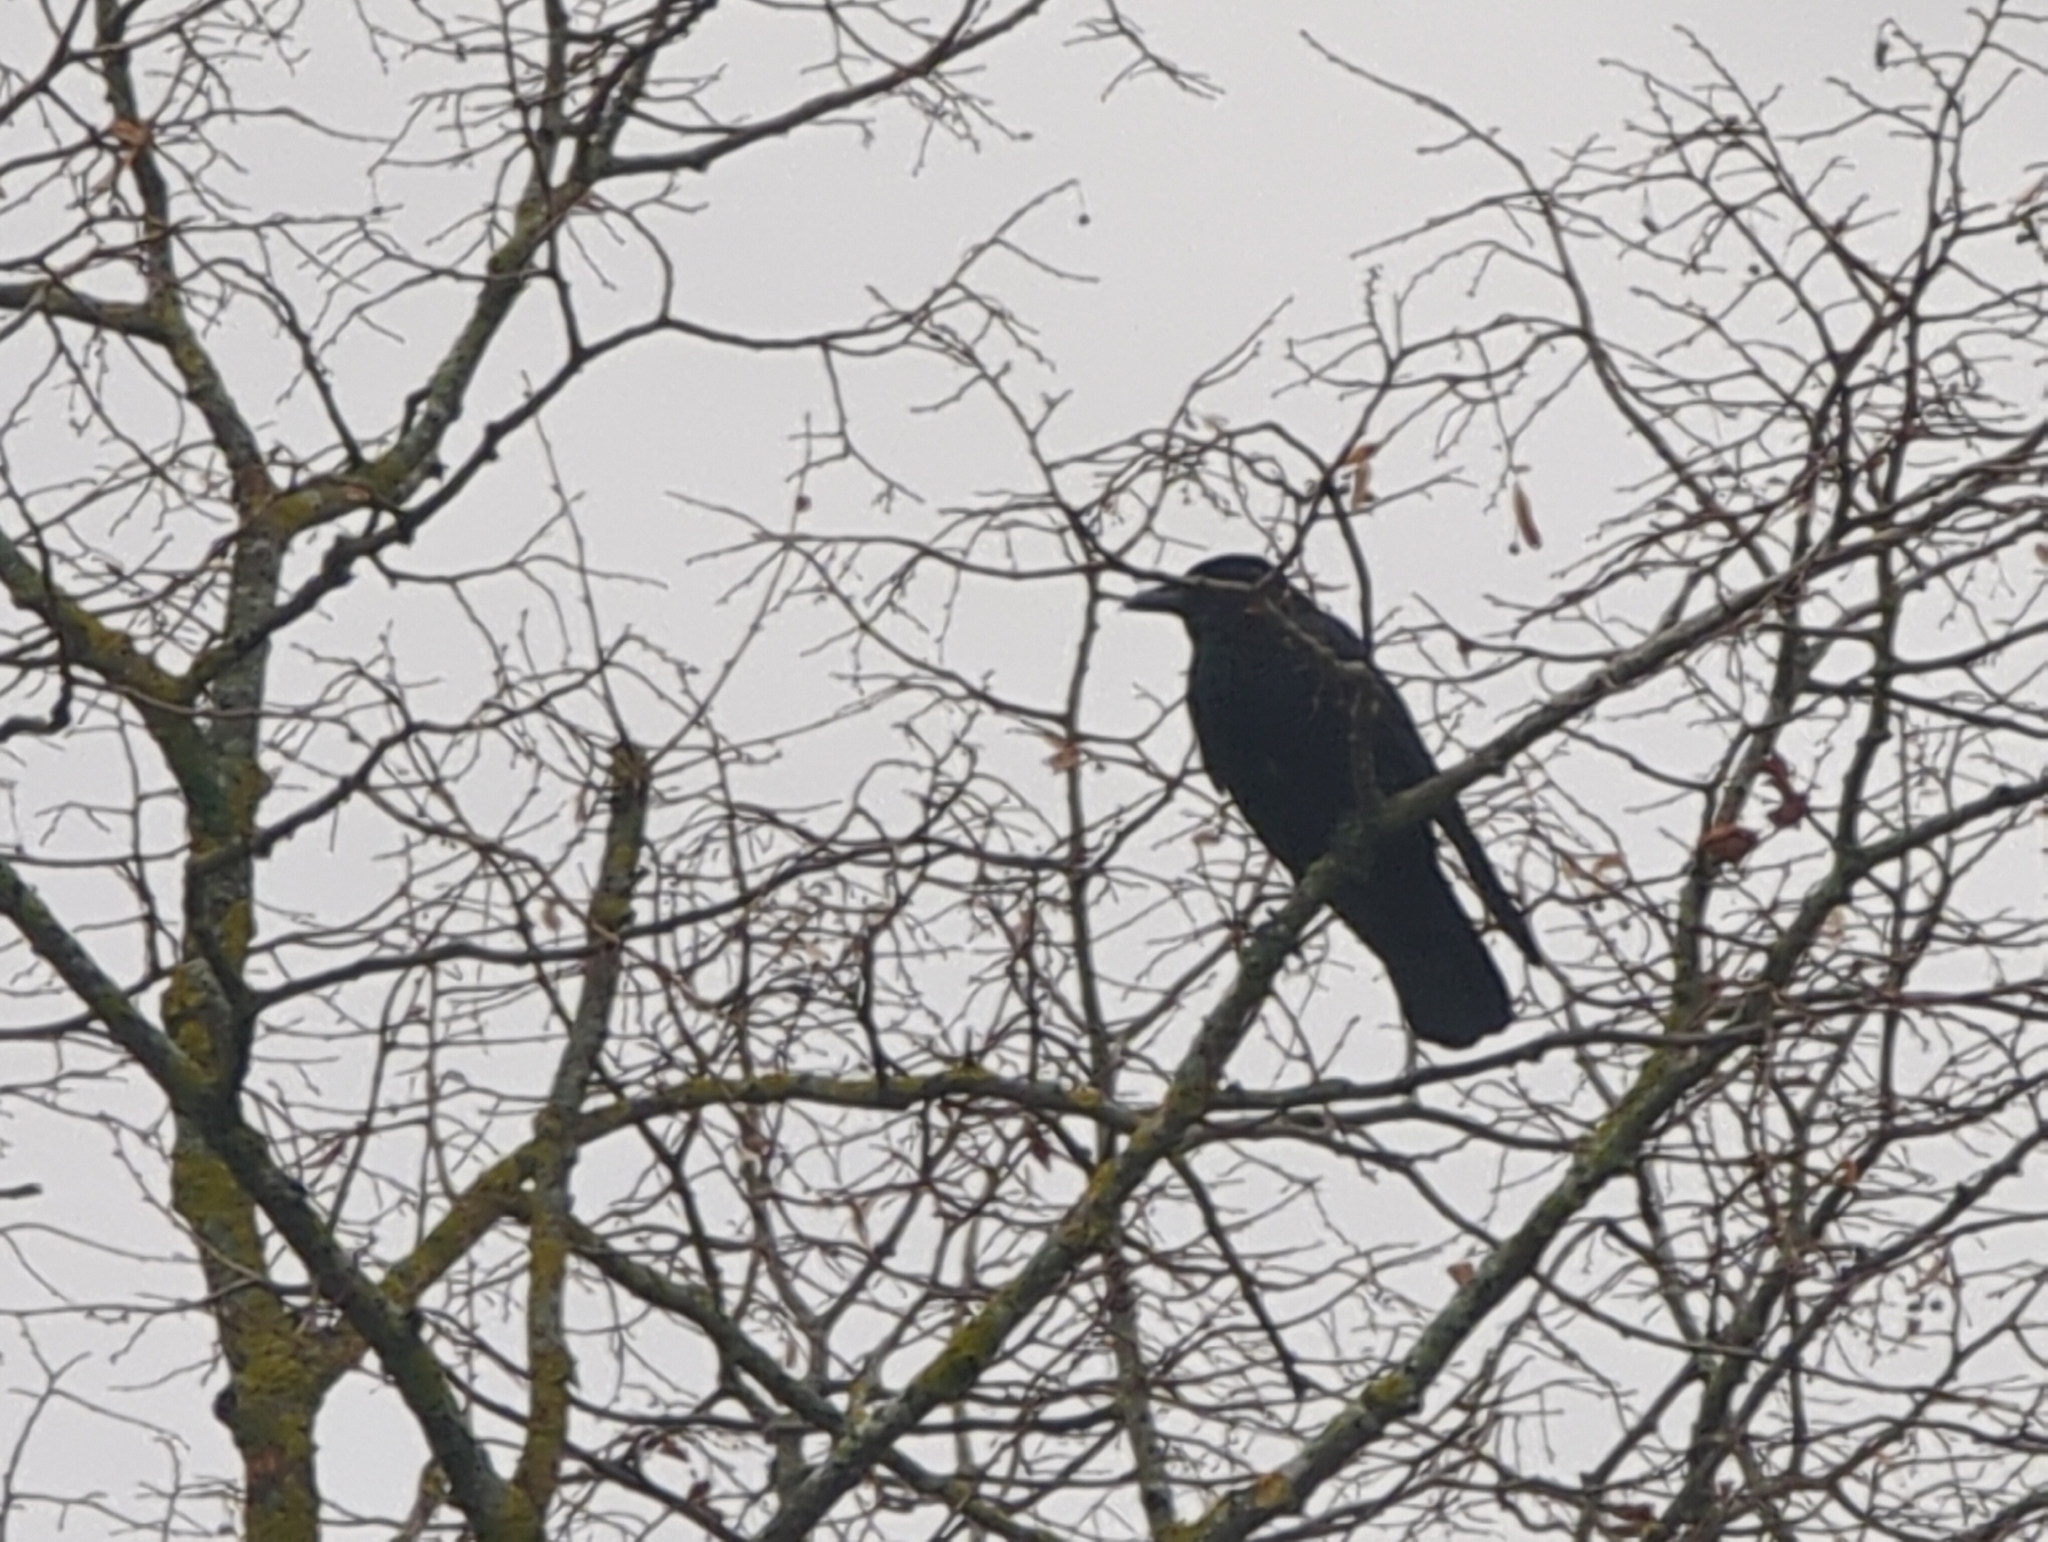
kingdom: Animalia
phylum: Chordata
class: Aves
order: Passeriformes
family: Corvidae
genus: Corvus
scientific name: Corvus corone
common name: Carrion crow
